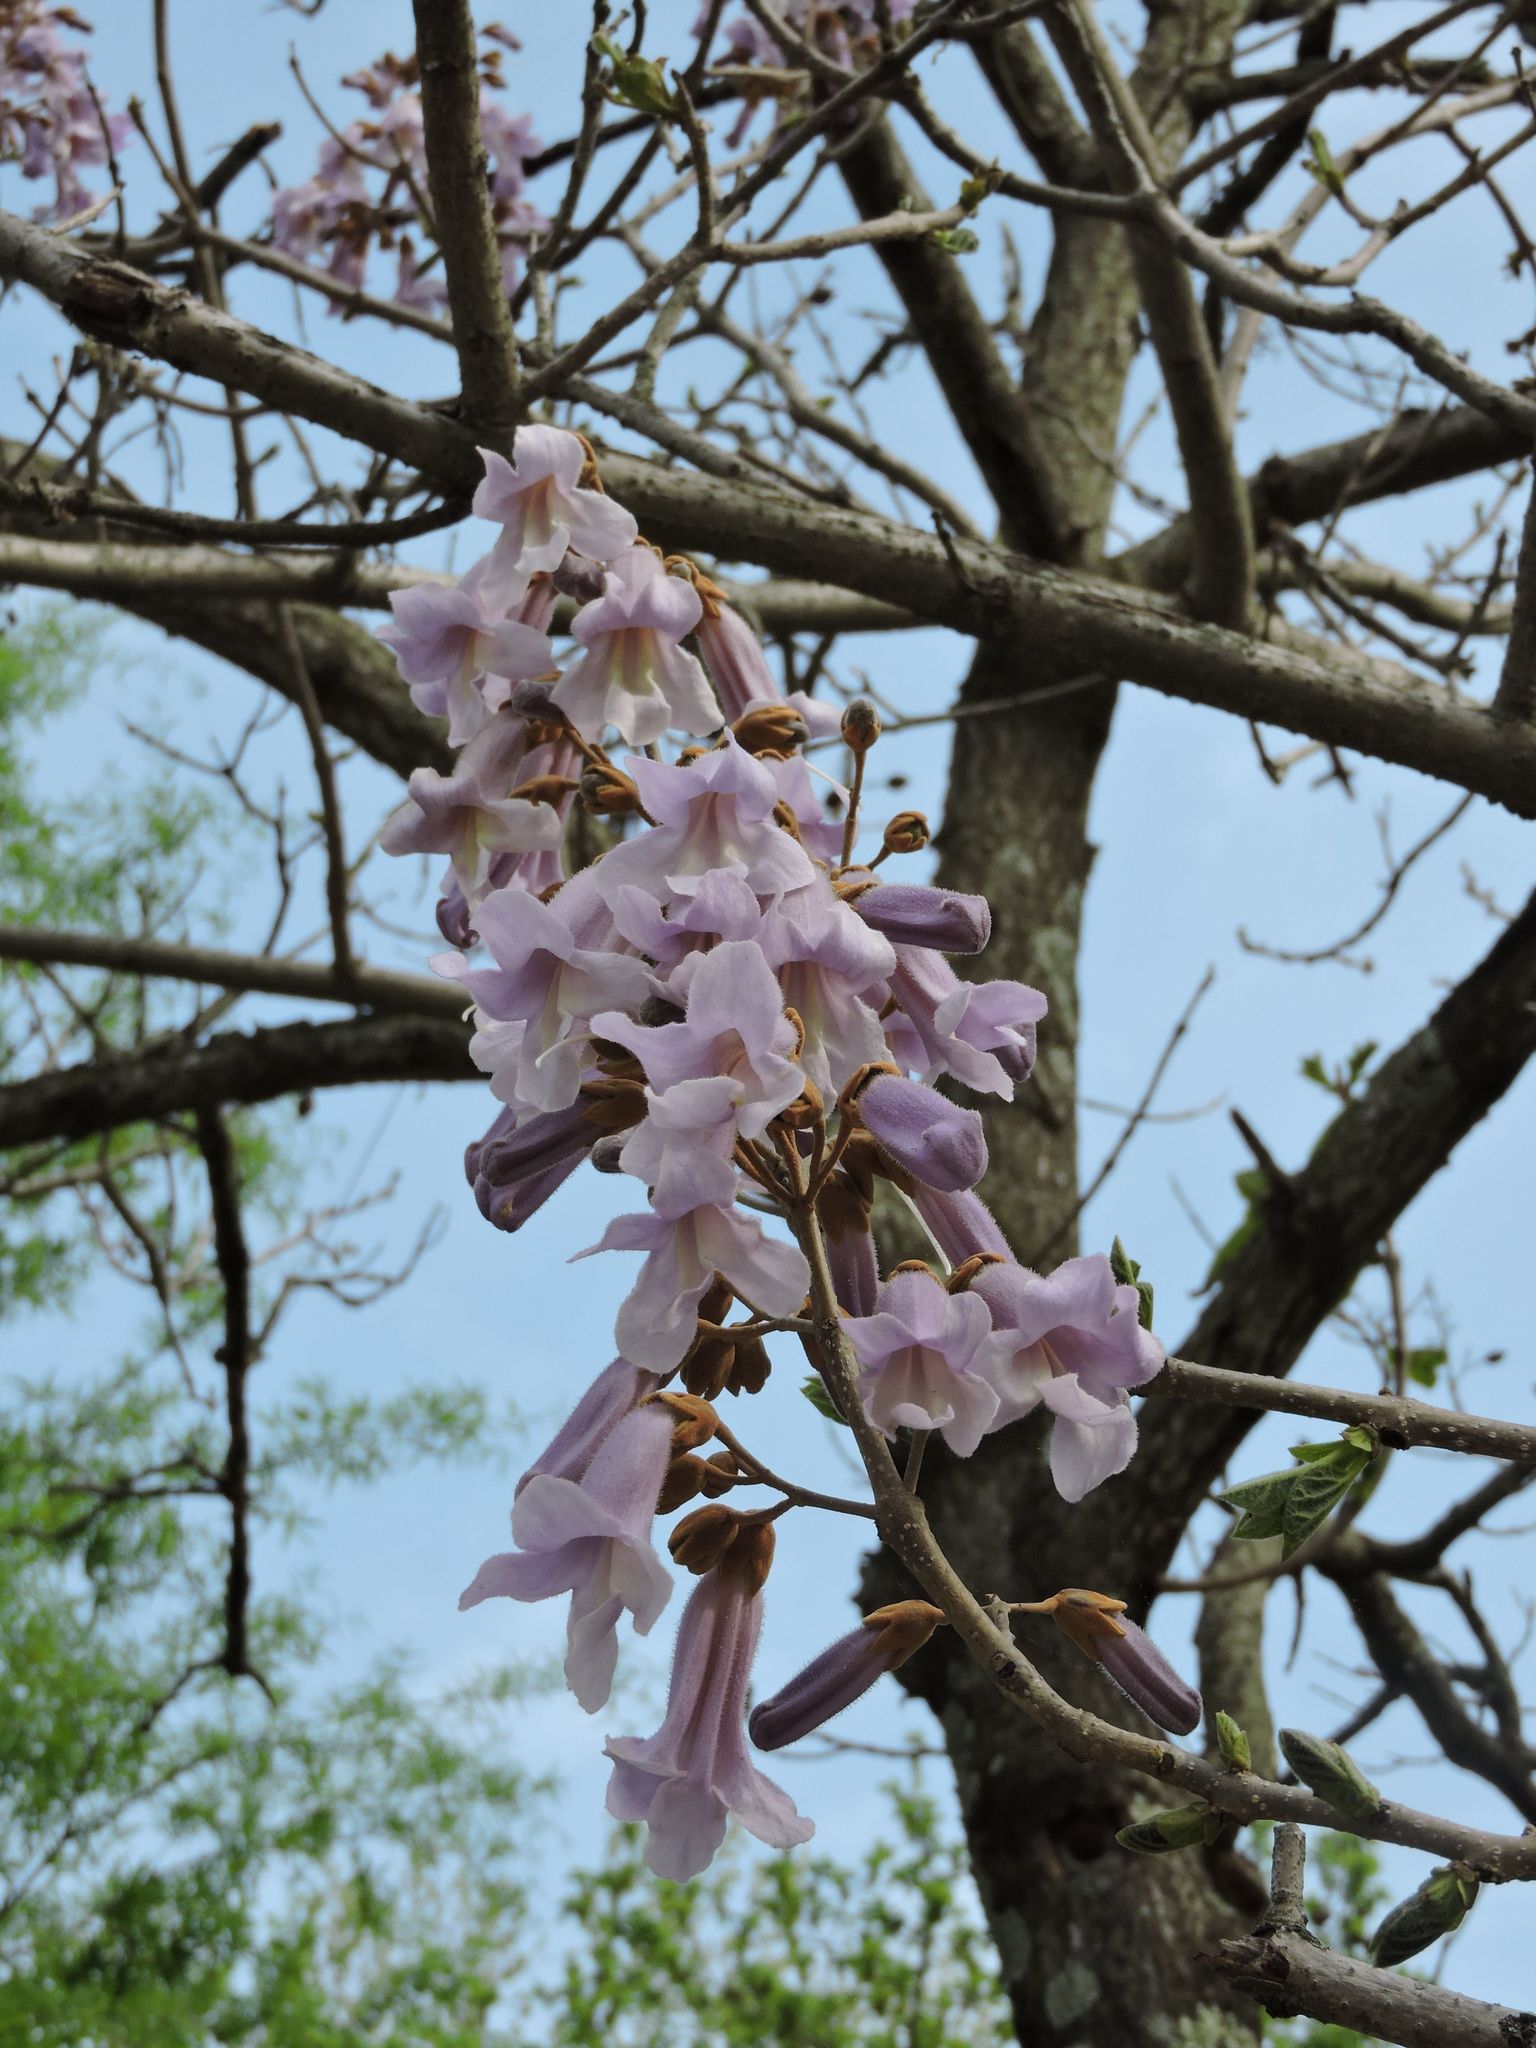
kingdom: Plantae
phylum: Tracheophyta
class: Magnoliopsida
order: Lamiales
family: Paulowniaceae
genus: Paulownia
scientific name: Paulownia tomentosa
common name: Foxglove-tree
